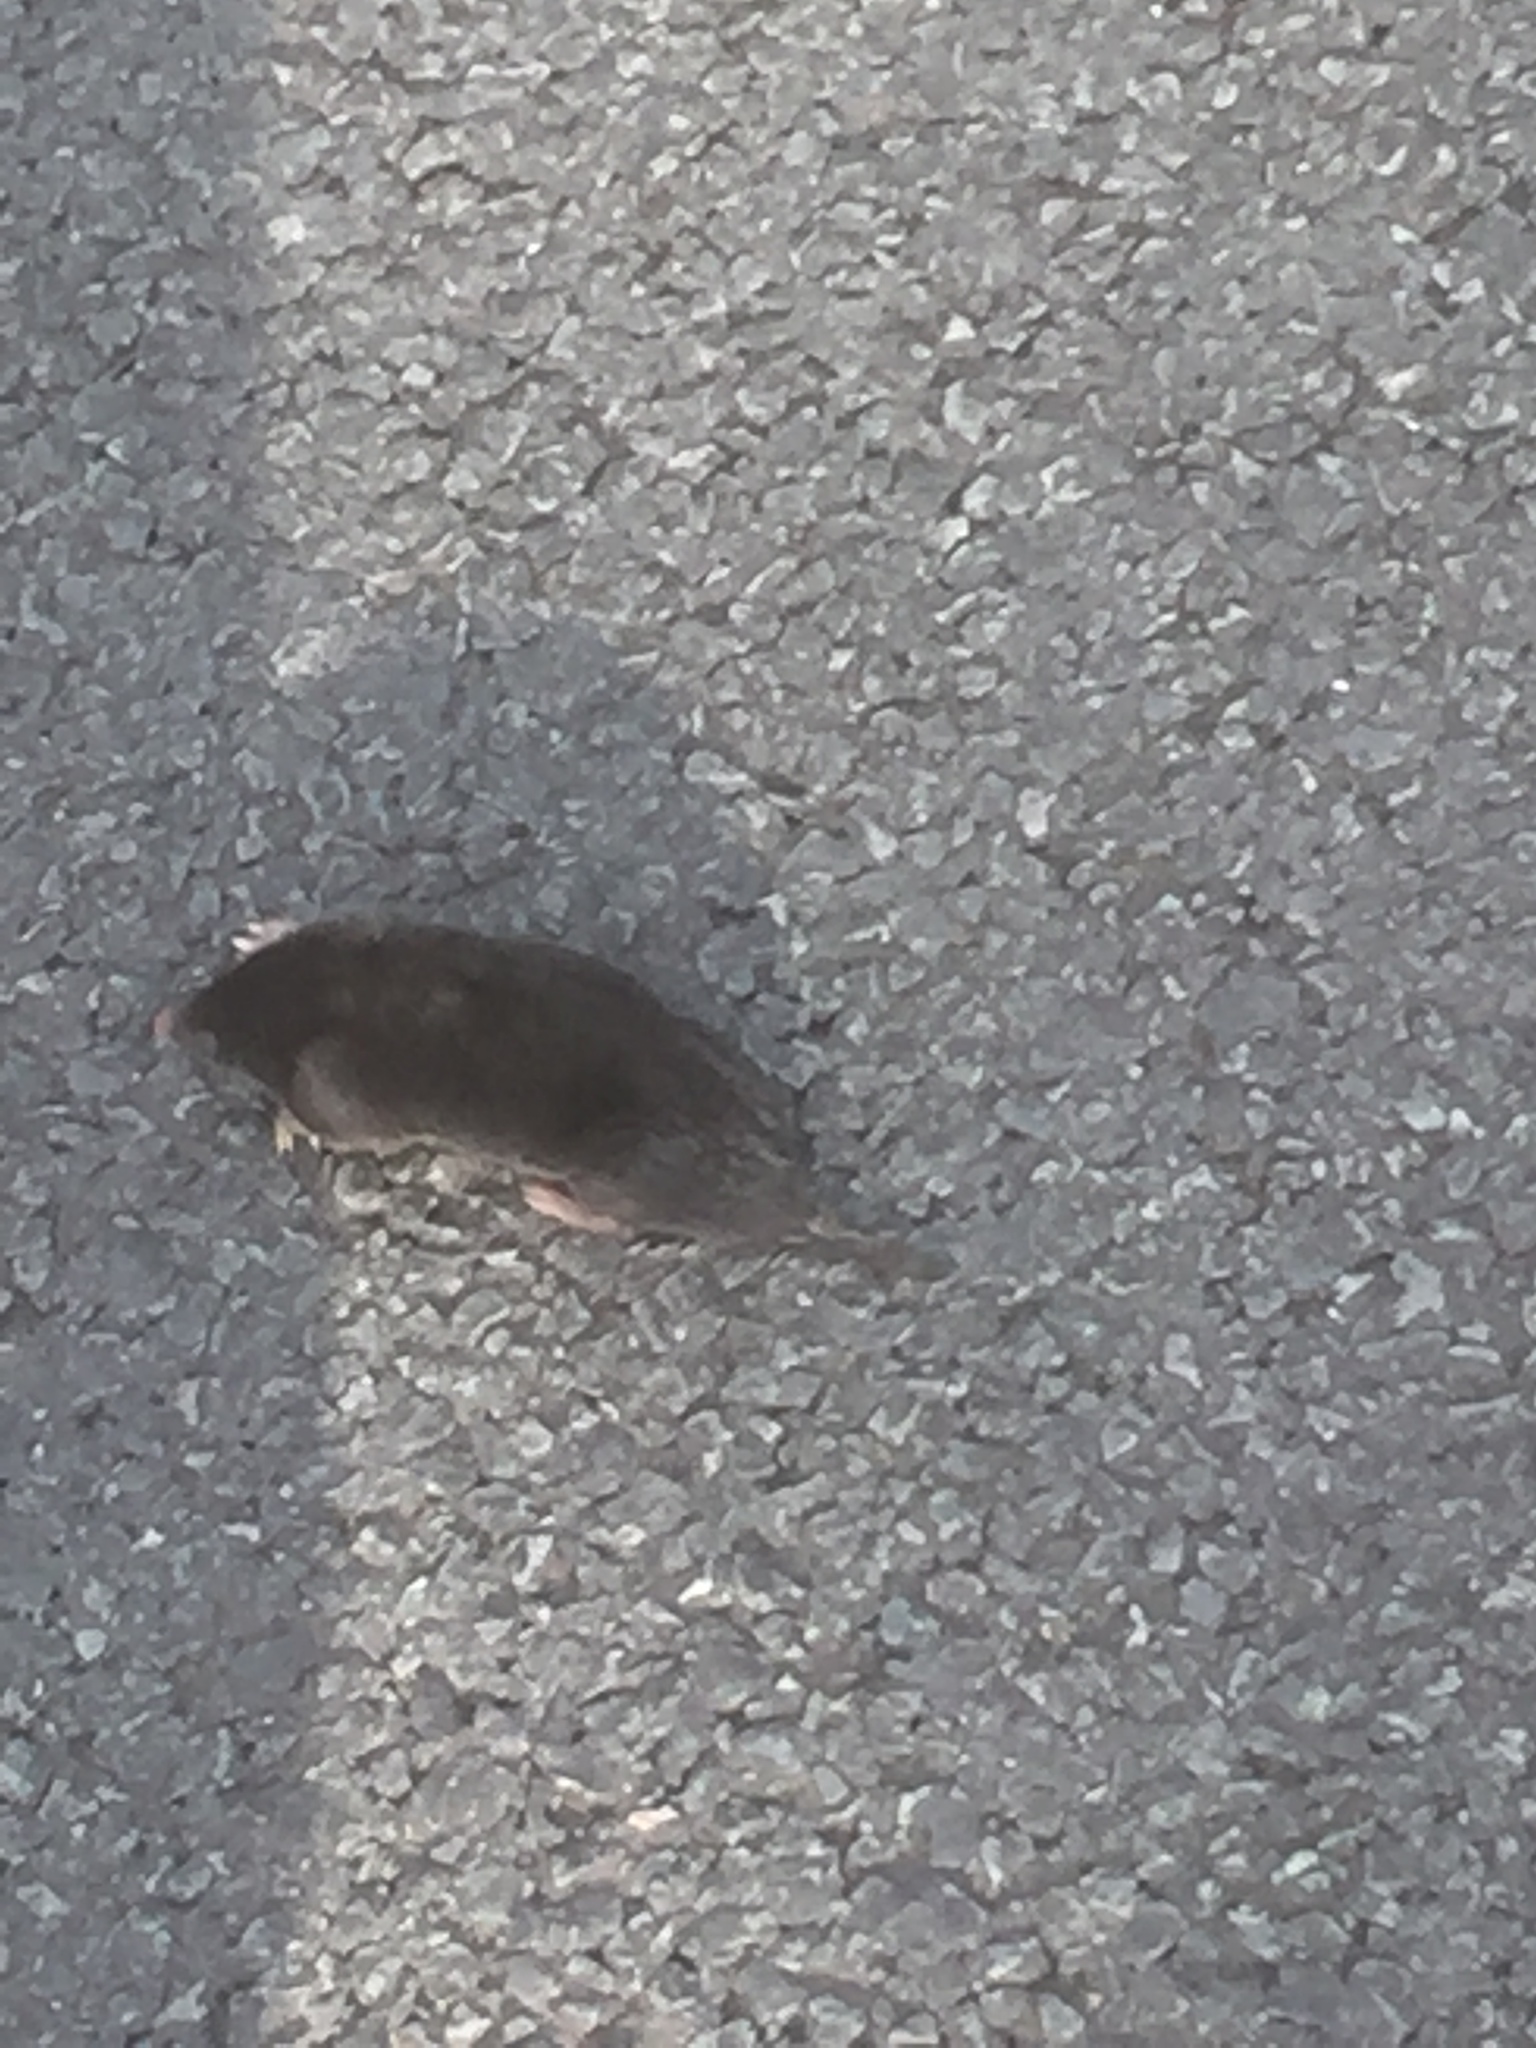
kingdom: Animalia
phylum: Chordata
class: Mammalia
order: Soricomorpha
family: Talpidae
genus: Talpa
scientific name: Talpa europaea
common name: European mole
